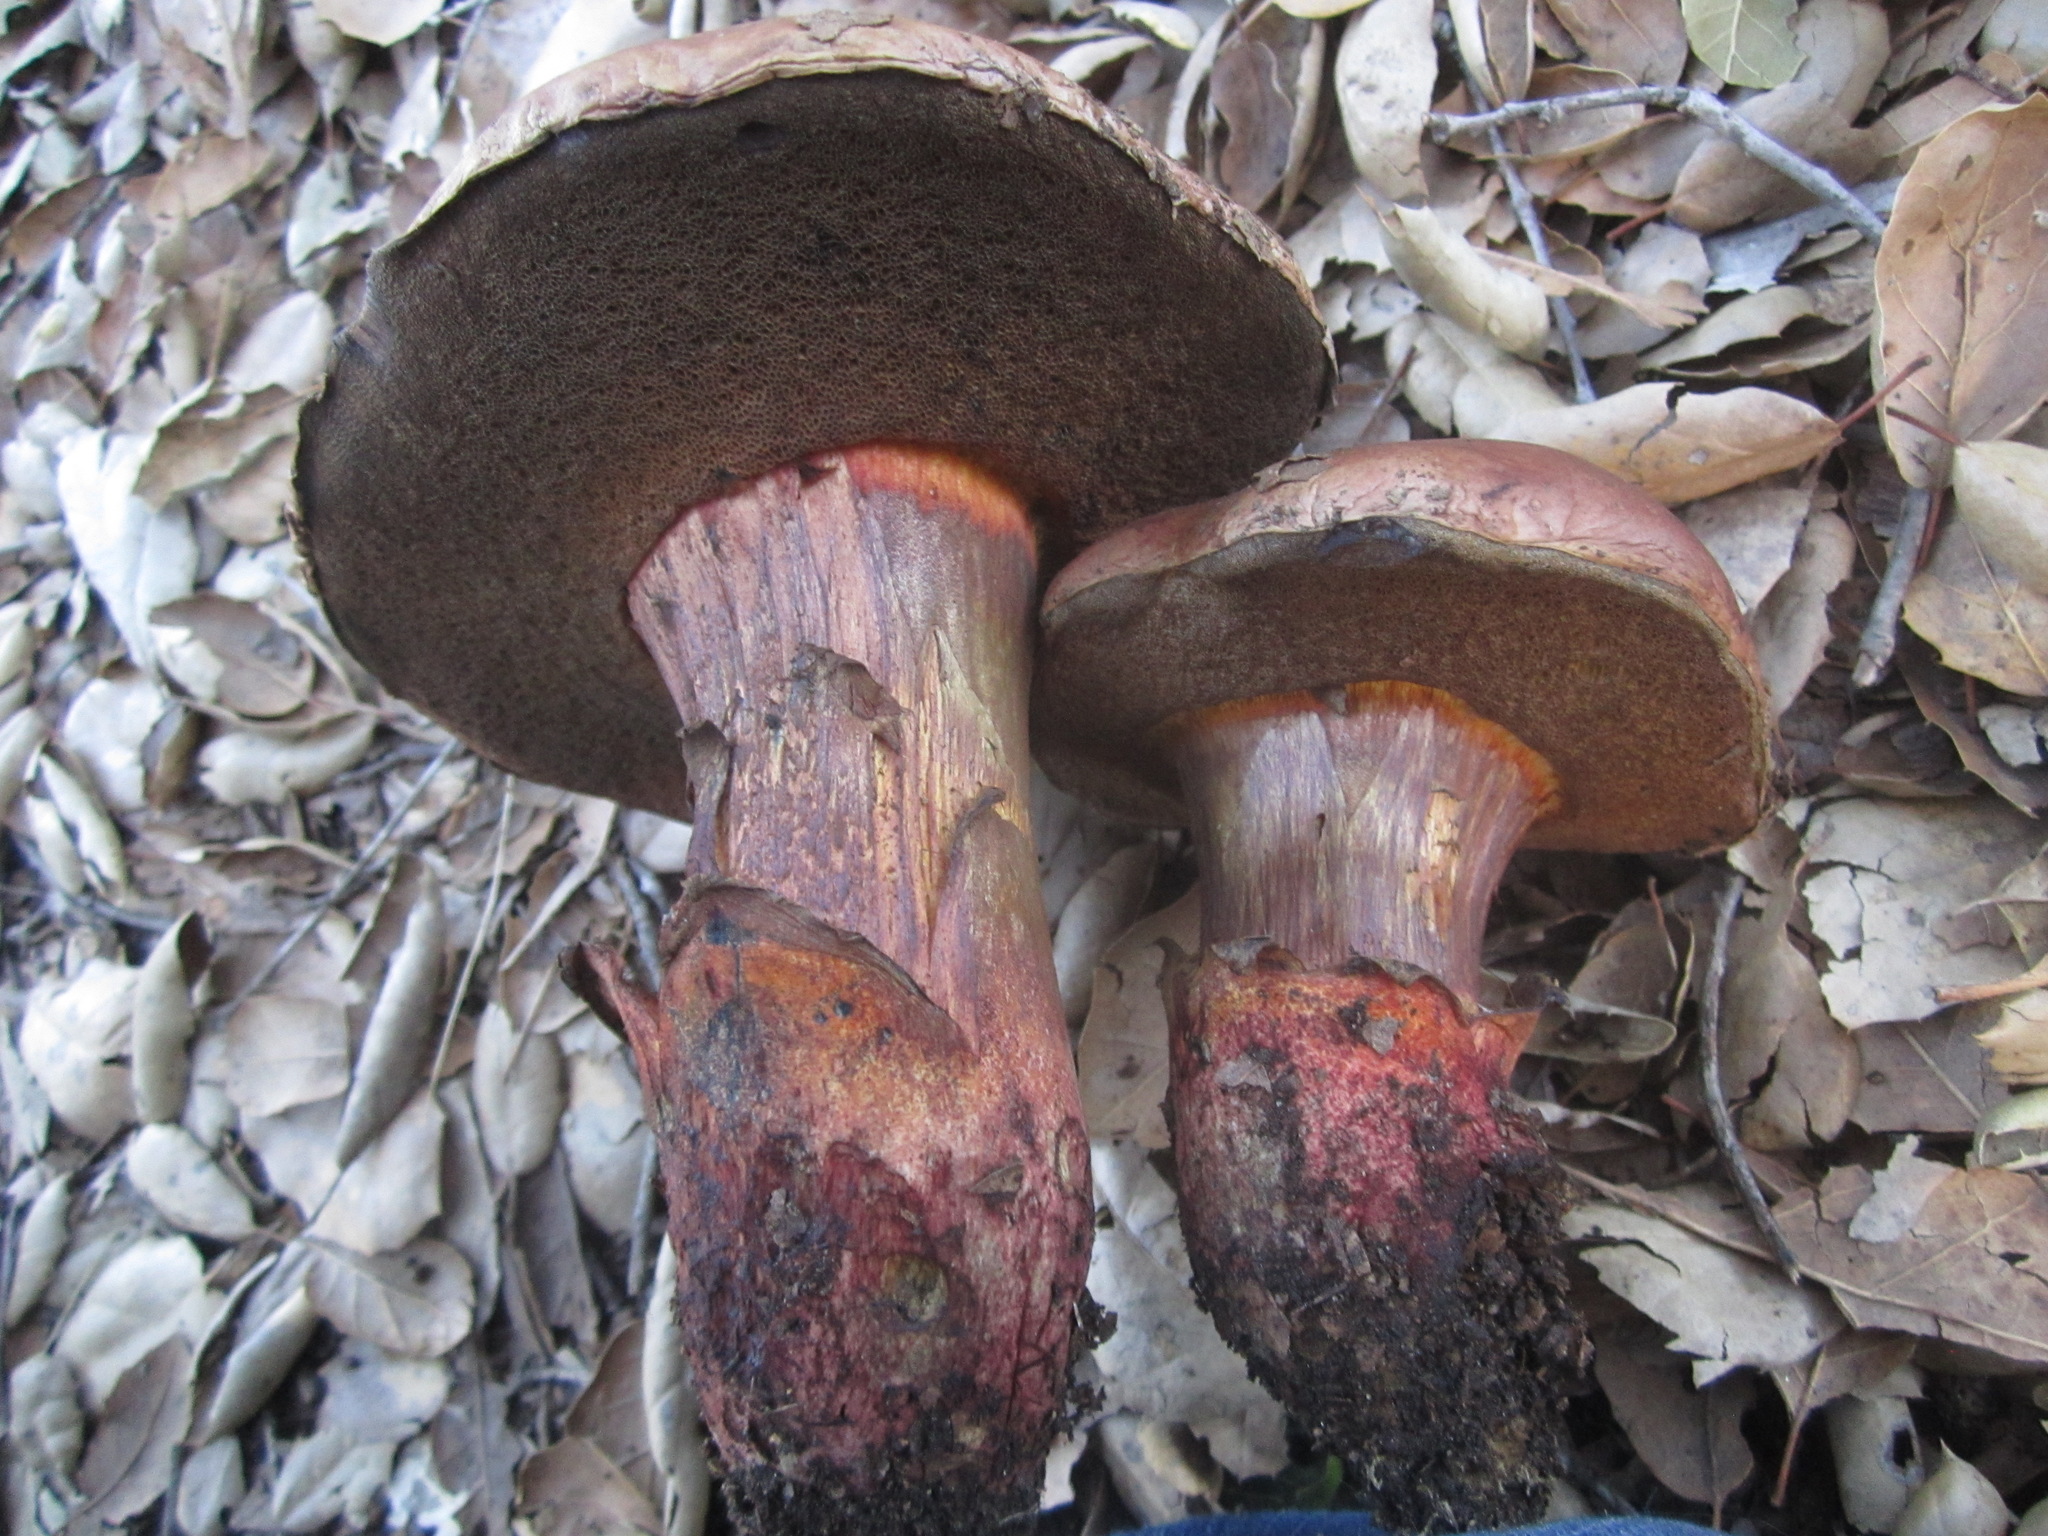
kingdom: Fungi
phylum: Basidiomycota
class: Agaricomycetes
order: Boletales
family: Boletaceae
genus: Suillellus
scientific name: Suillellus amygdalinus
